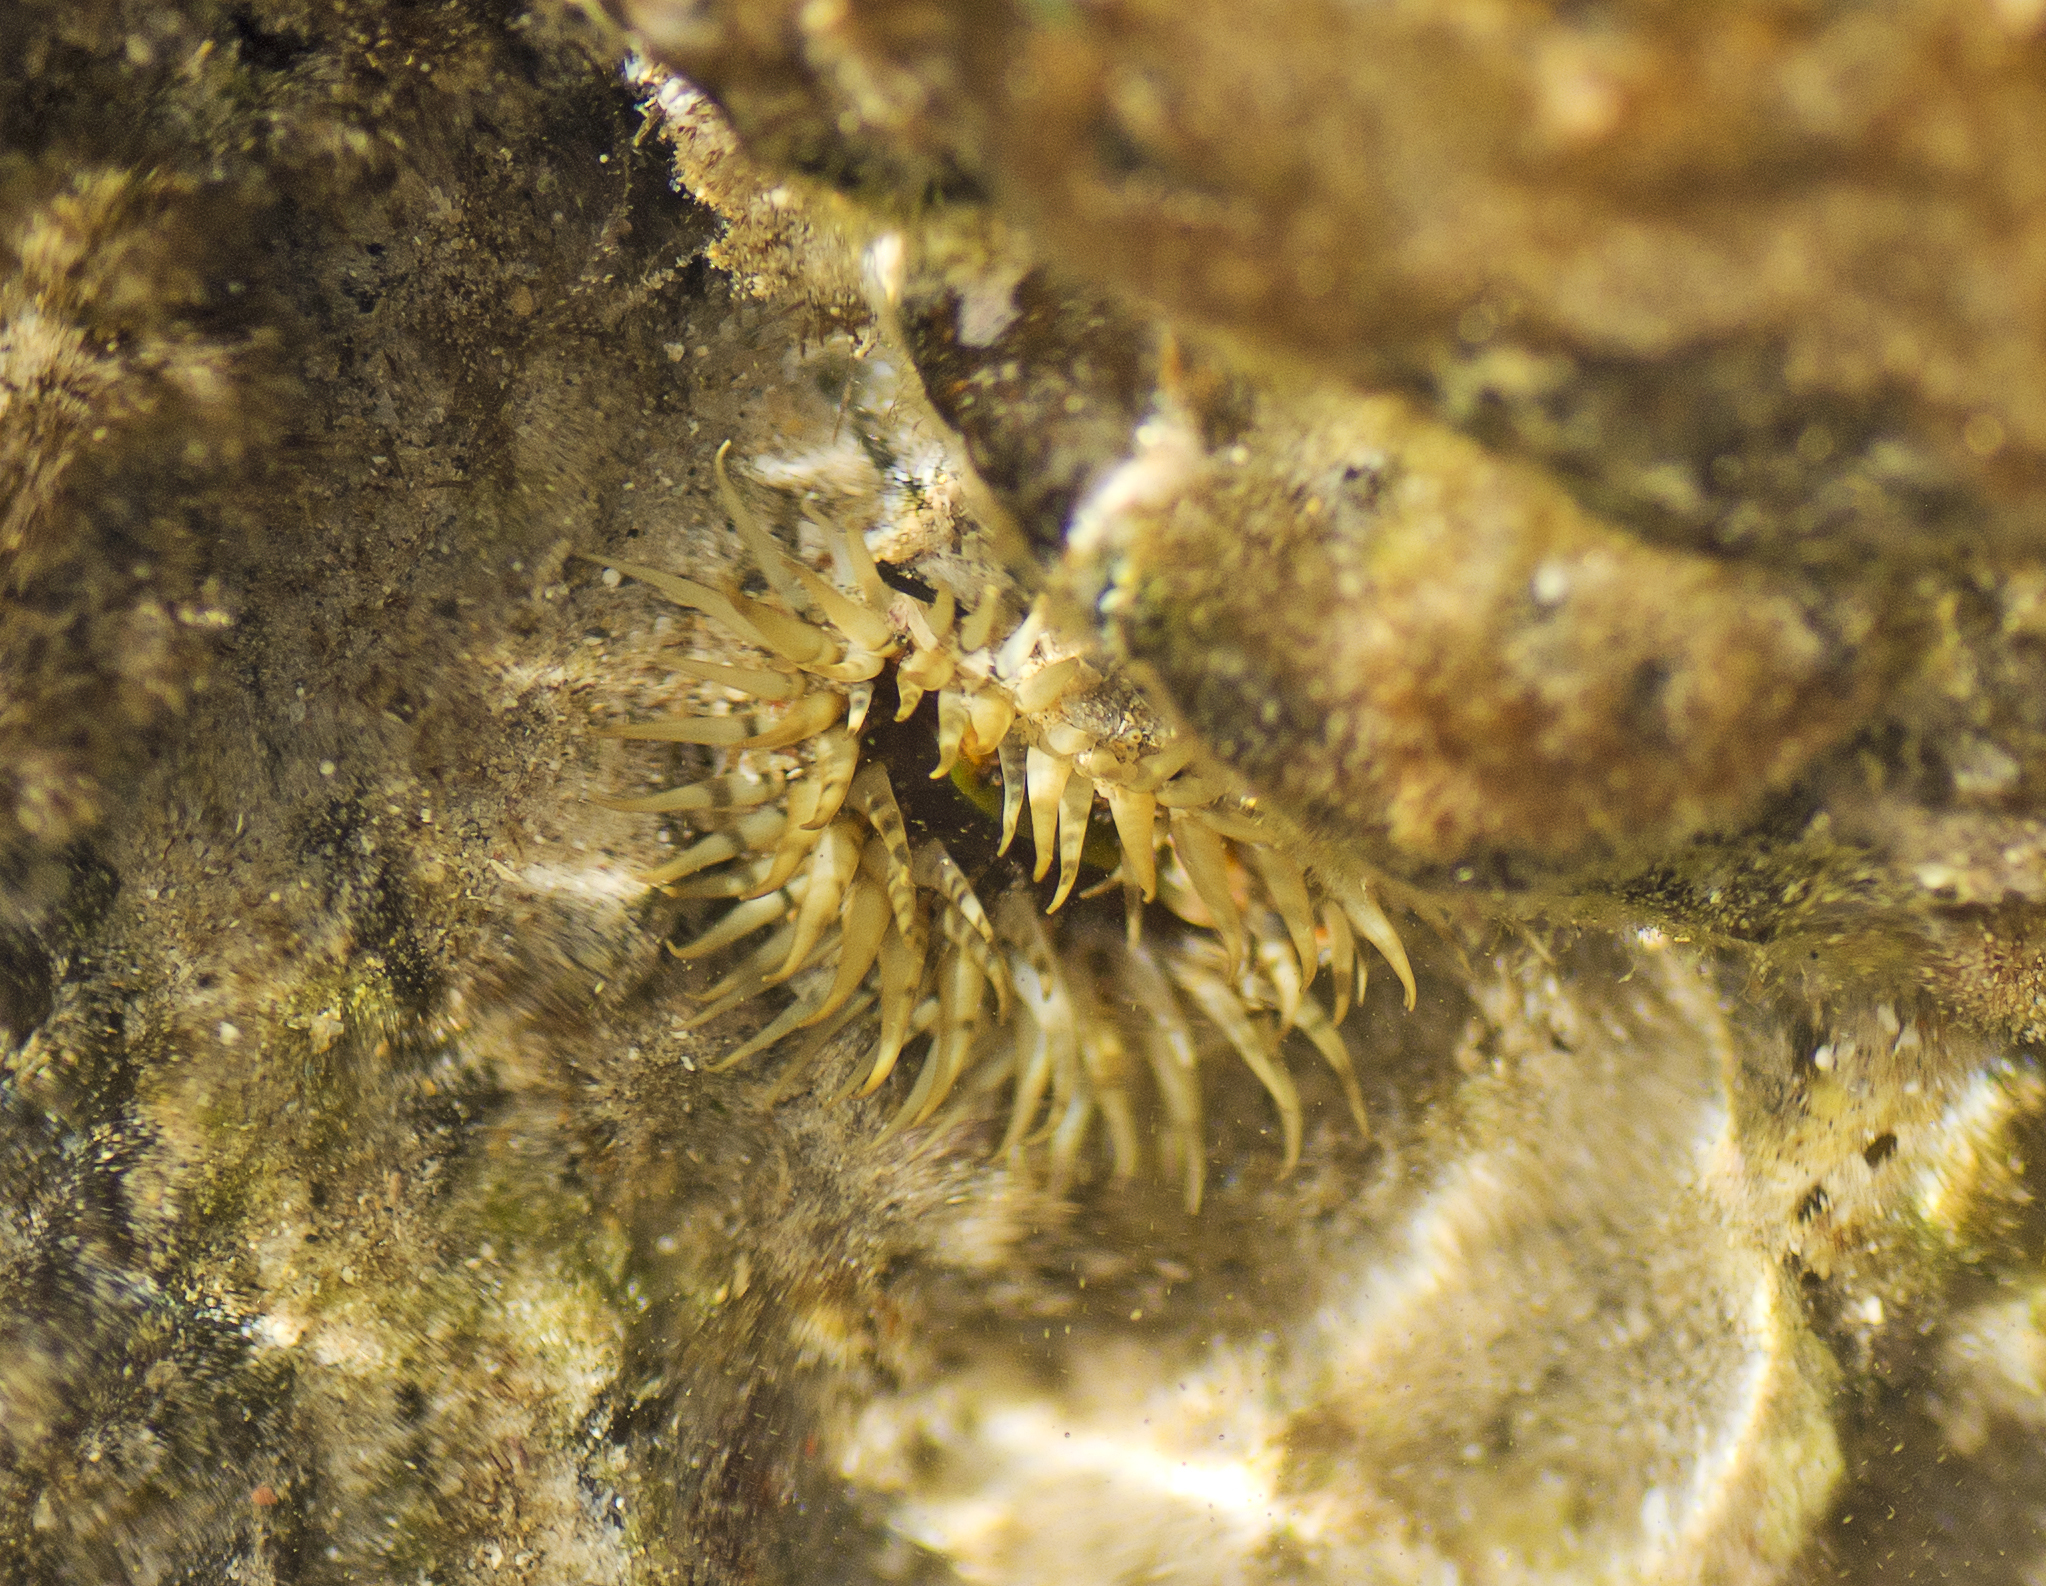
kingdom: Animalia
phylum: Cnidaria
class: Anthozoa
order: Actiniaria
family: Actiniidae
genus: Oulactis
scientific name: Oulactis muscosa
